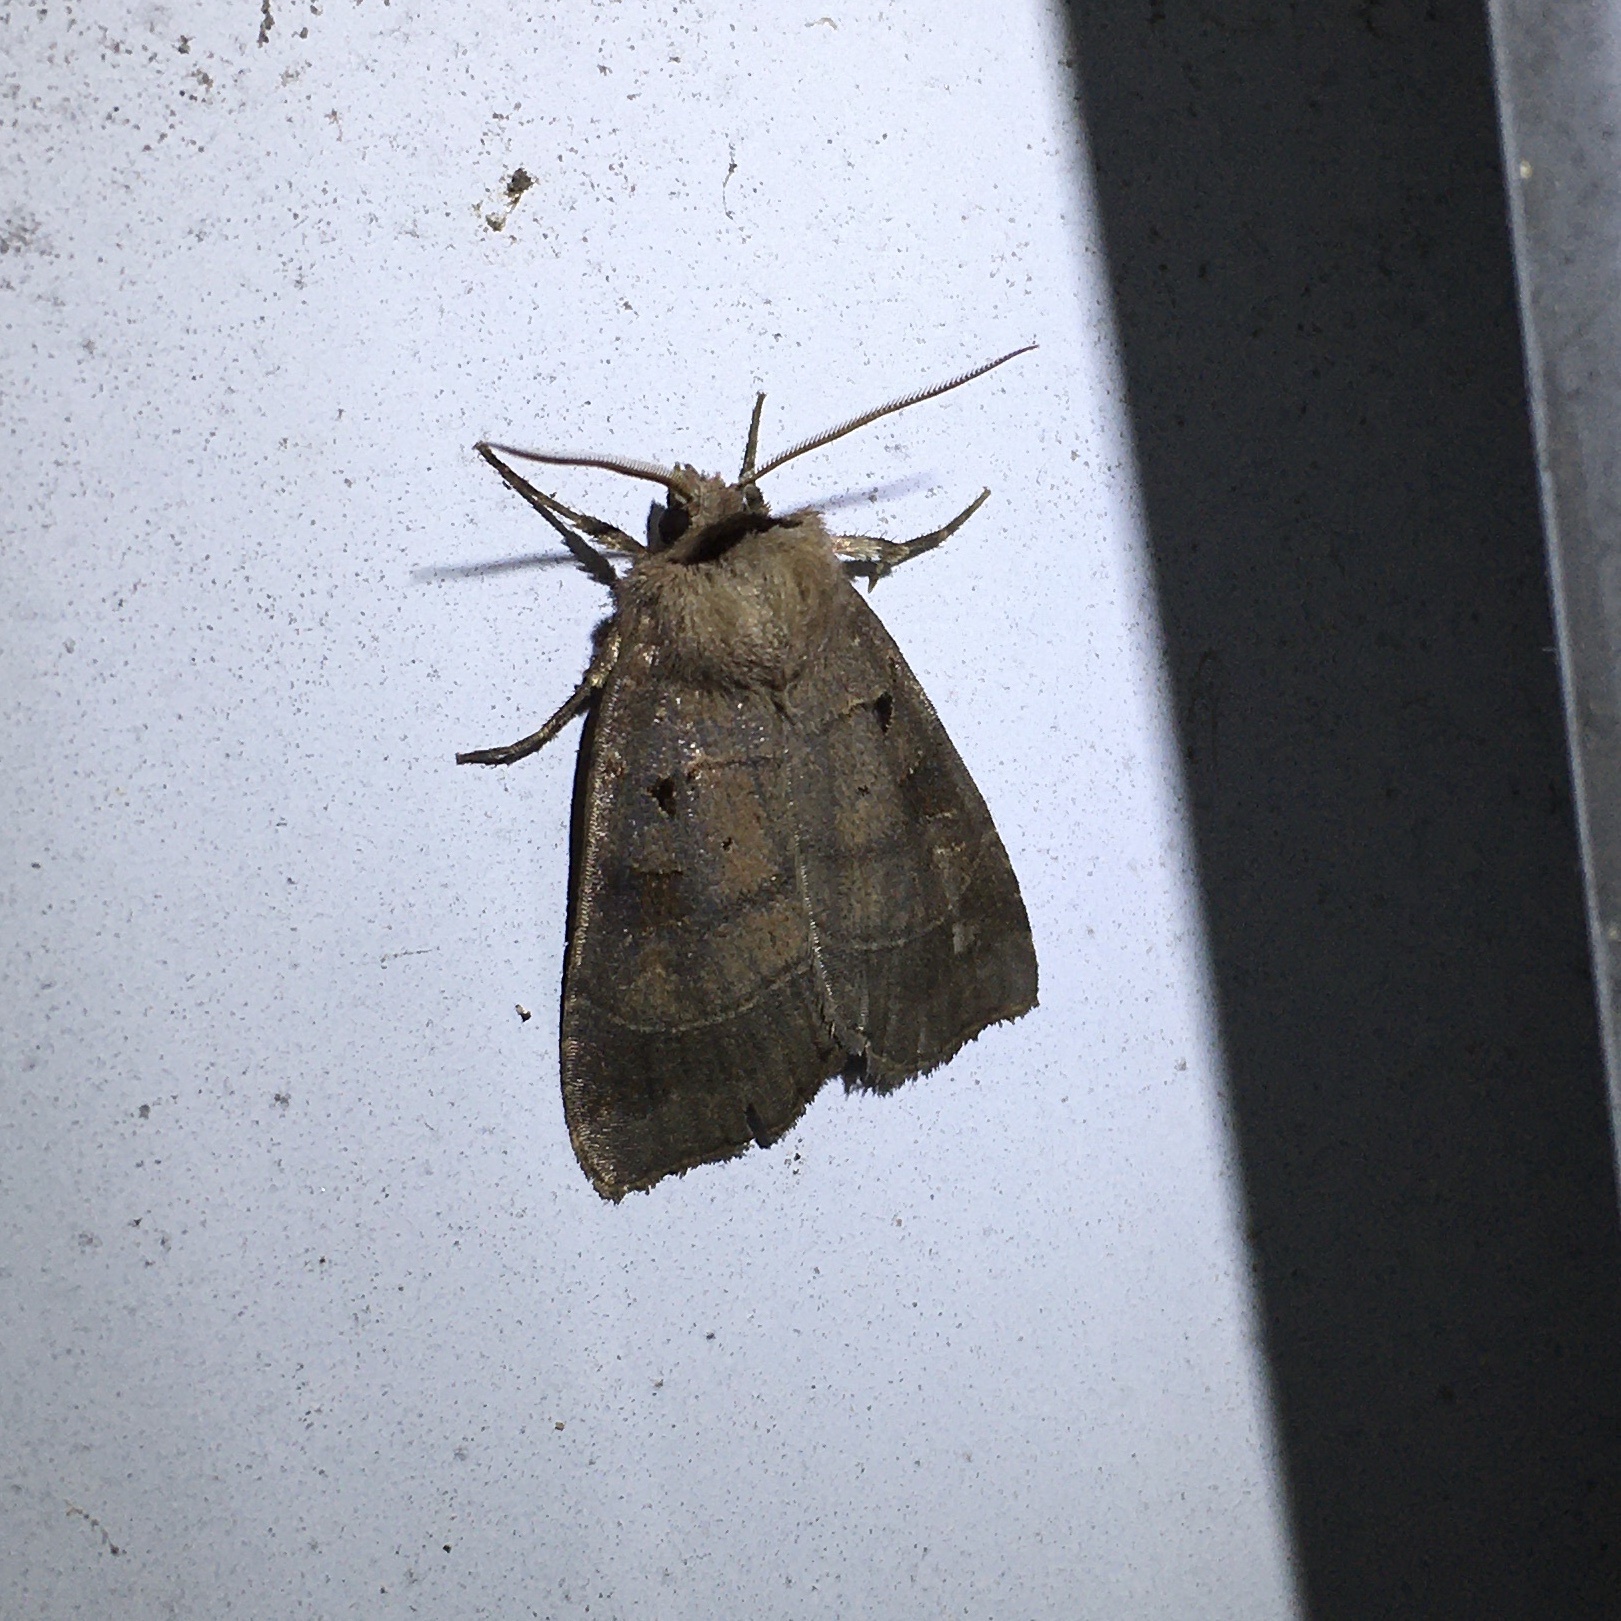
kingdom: Animalia
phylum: Arthropoda
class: Insecta
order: Lepidoptera
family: Noctuidae
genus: Agnorisma
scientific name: Agnorisma badinodis
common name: Pale-banded dart
